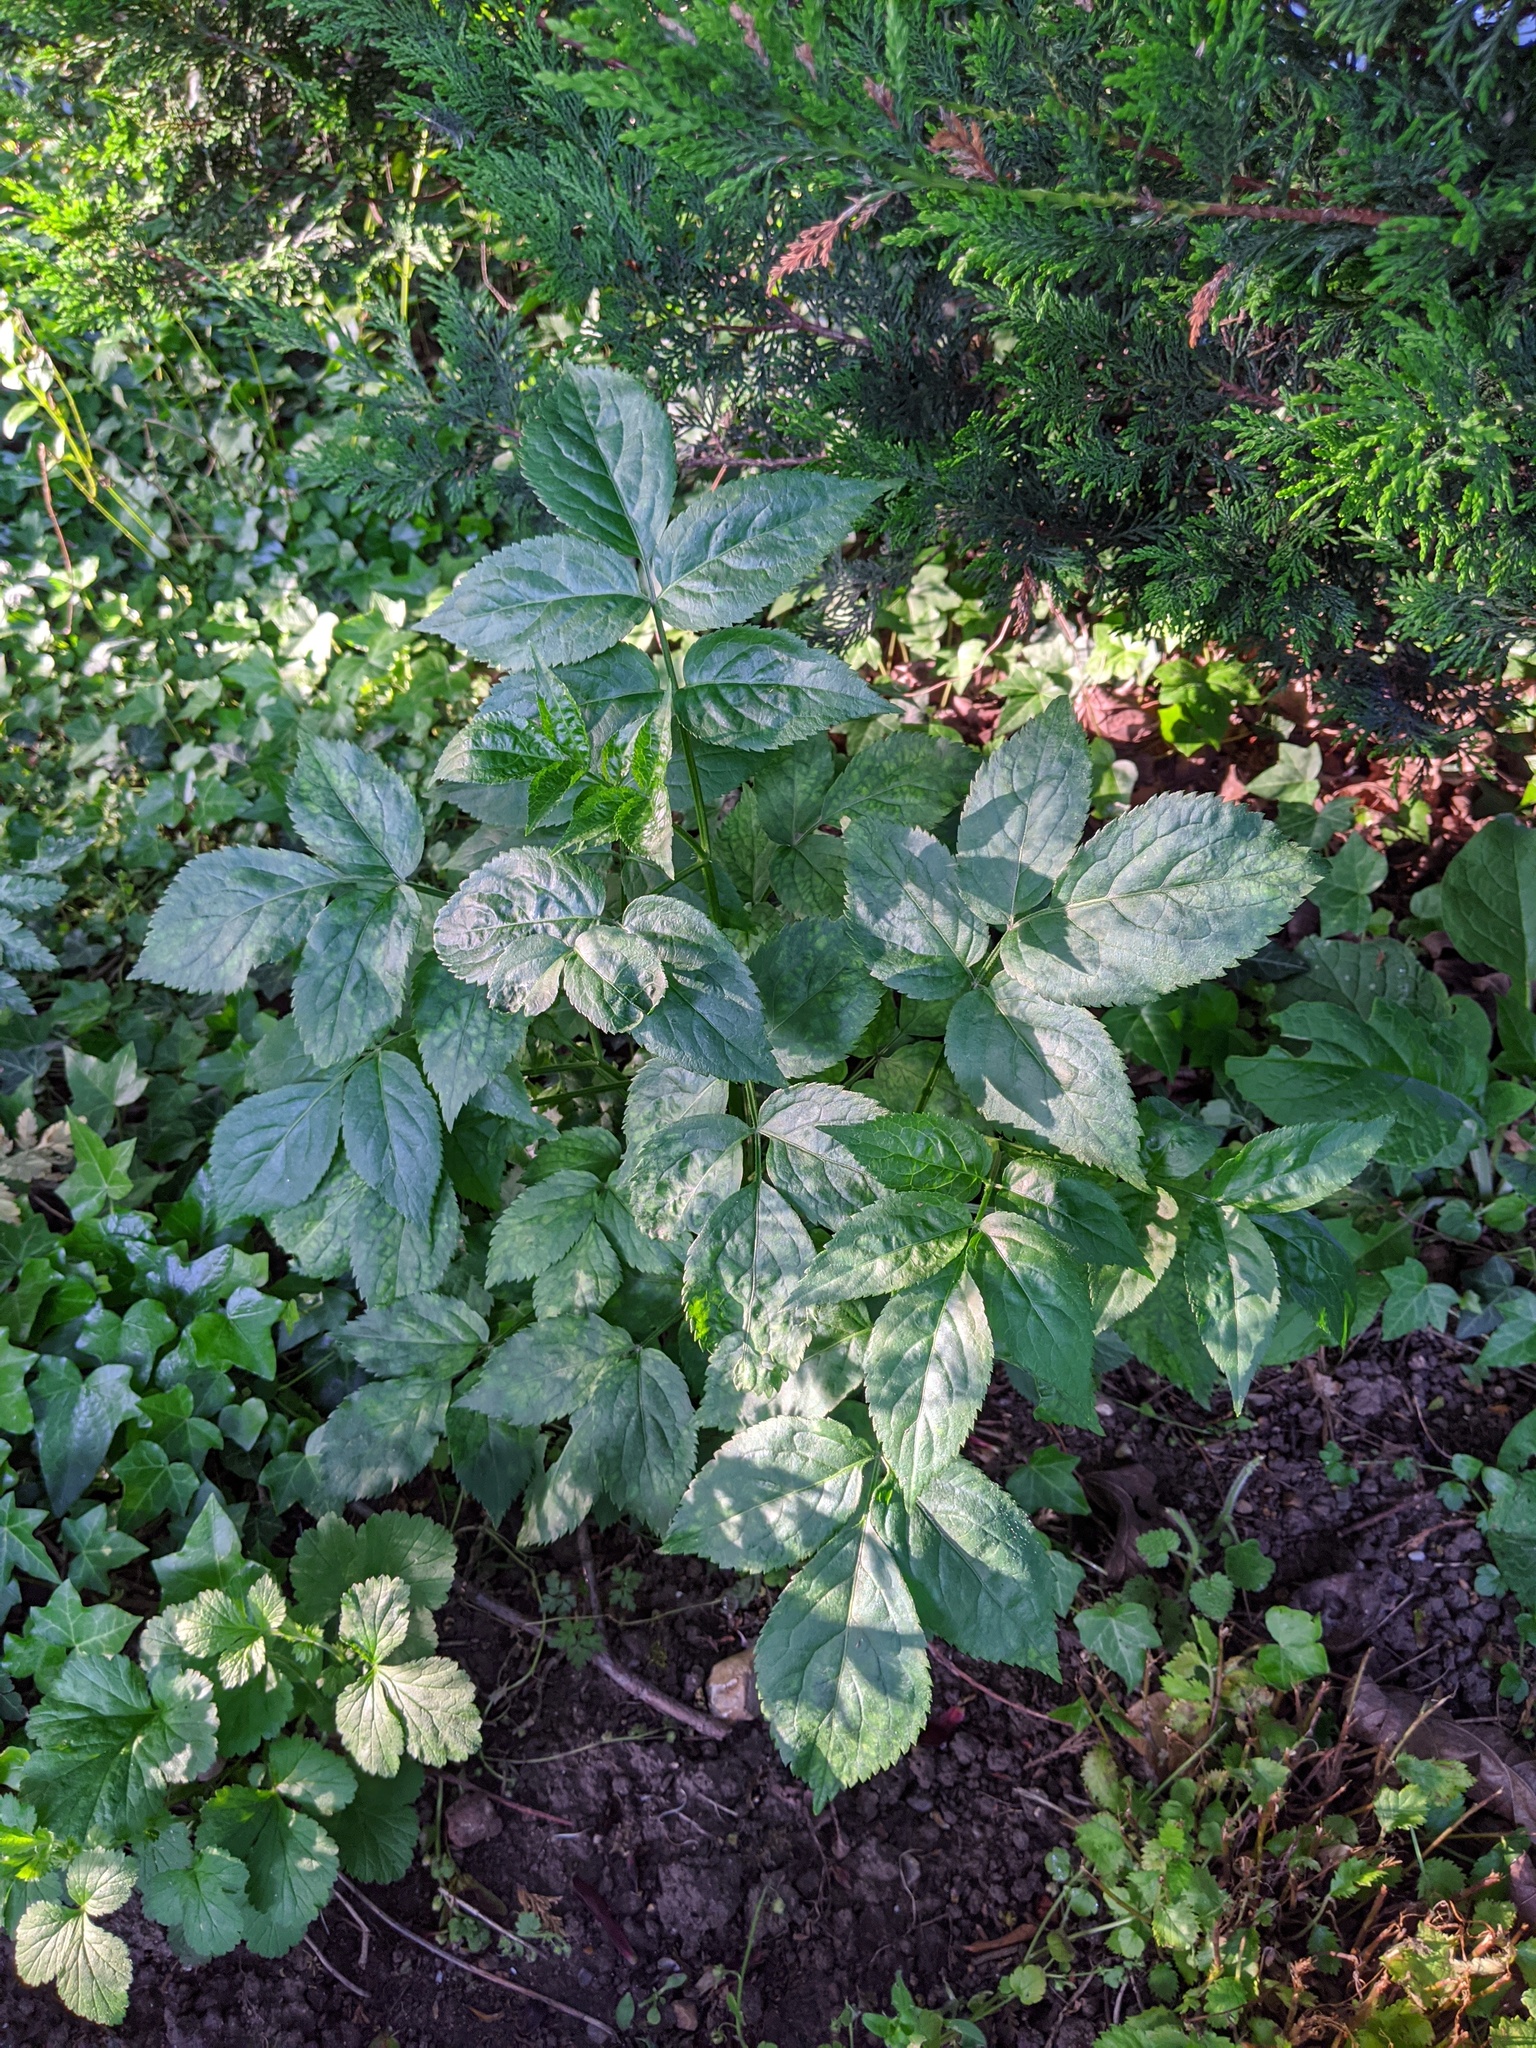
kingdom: Plantae
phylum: Tracheophyta
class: Magnoliopsida
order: Dipsacales
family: Viburnaceae
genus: Sambucus
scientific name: Sambucus nigra
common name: Elder
